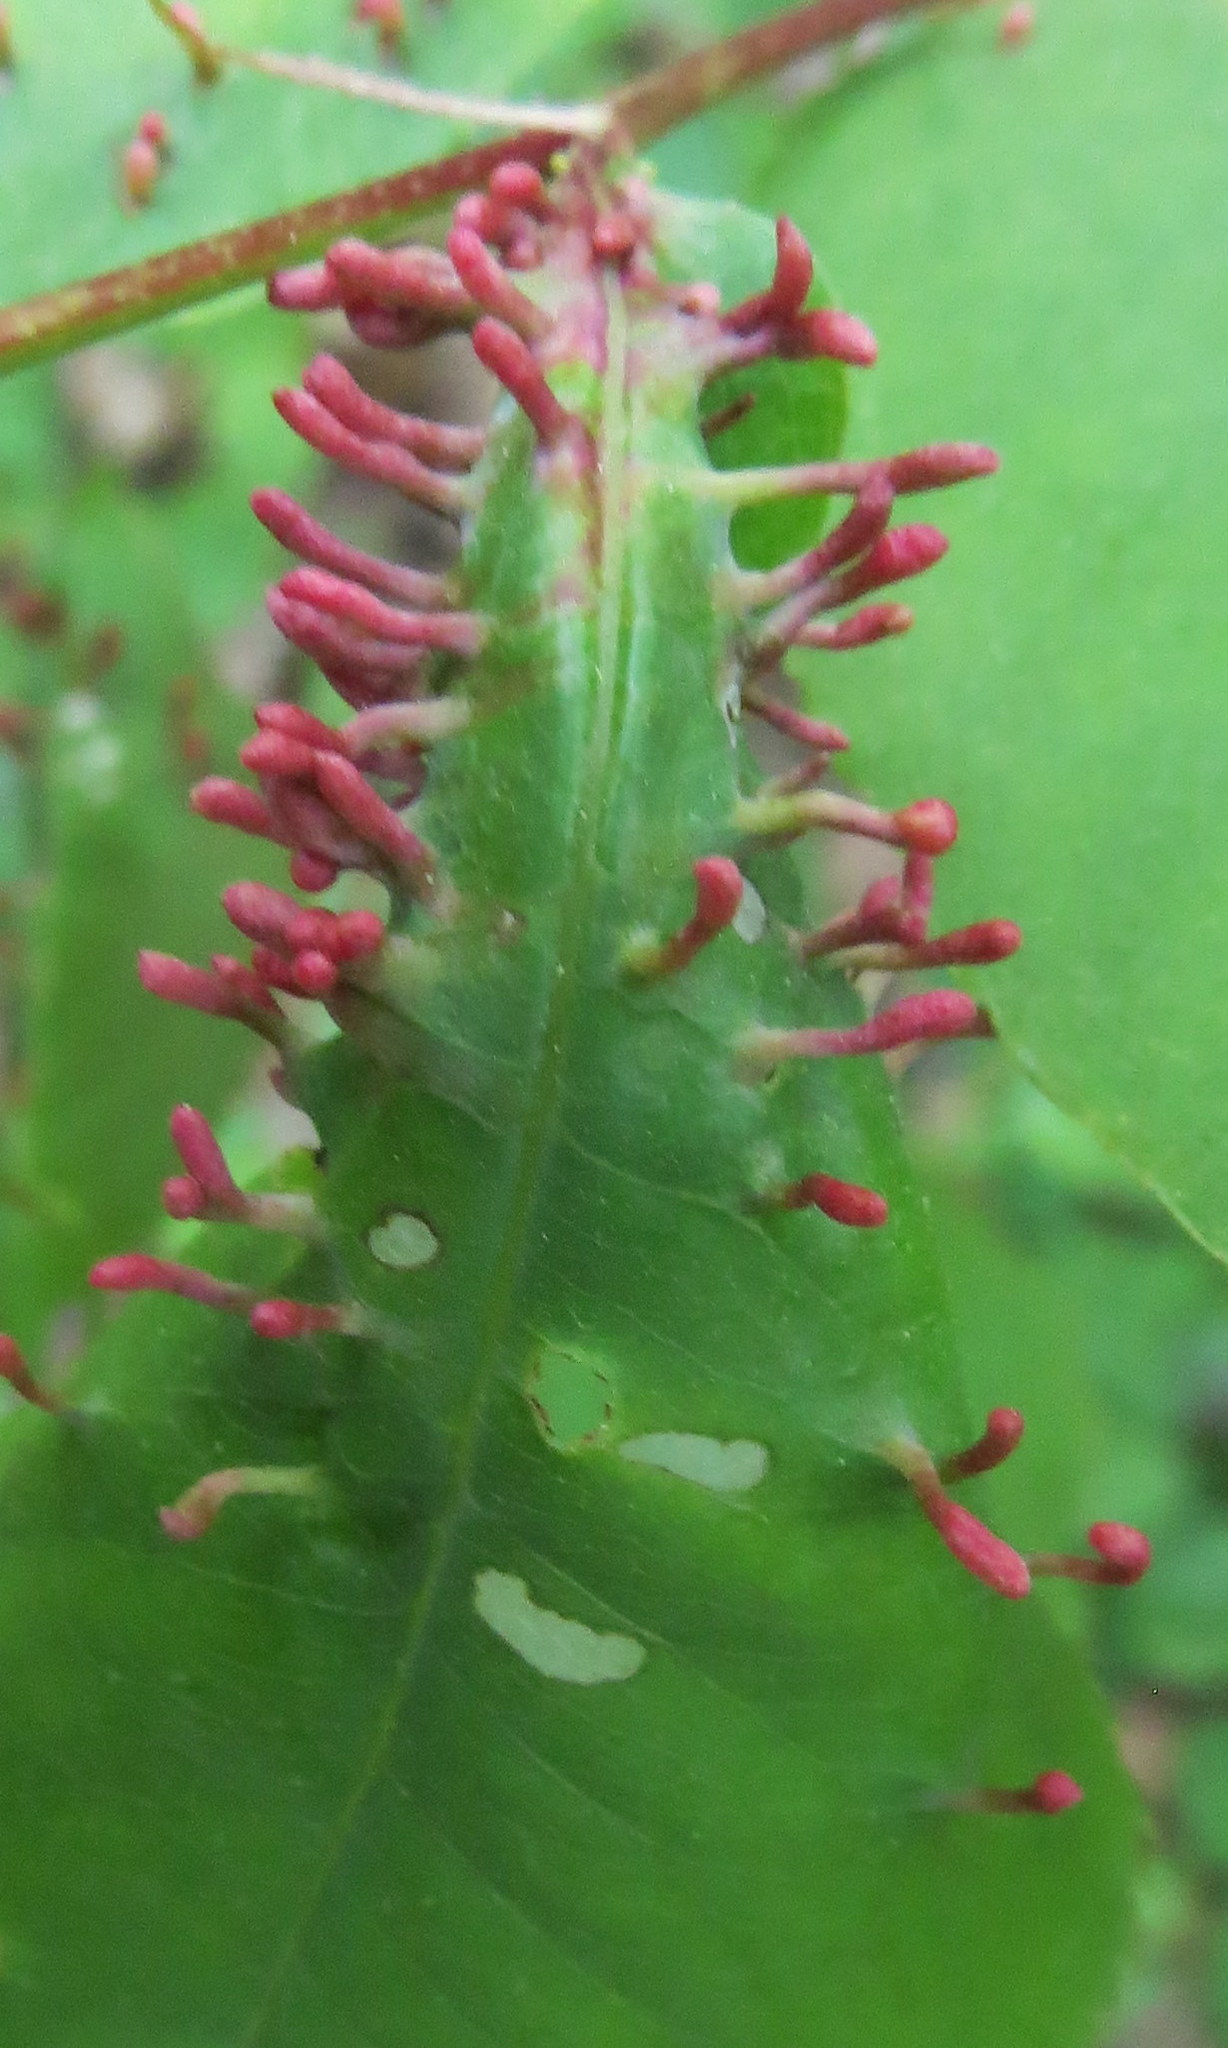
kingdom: Animalia
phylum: Arthropoda
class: Arachnida
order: Trombidiformes
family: Eriophyidae
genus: Eriophyes
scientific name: Eriophyes
